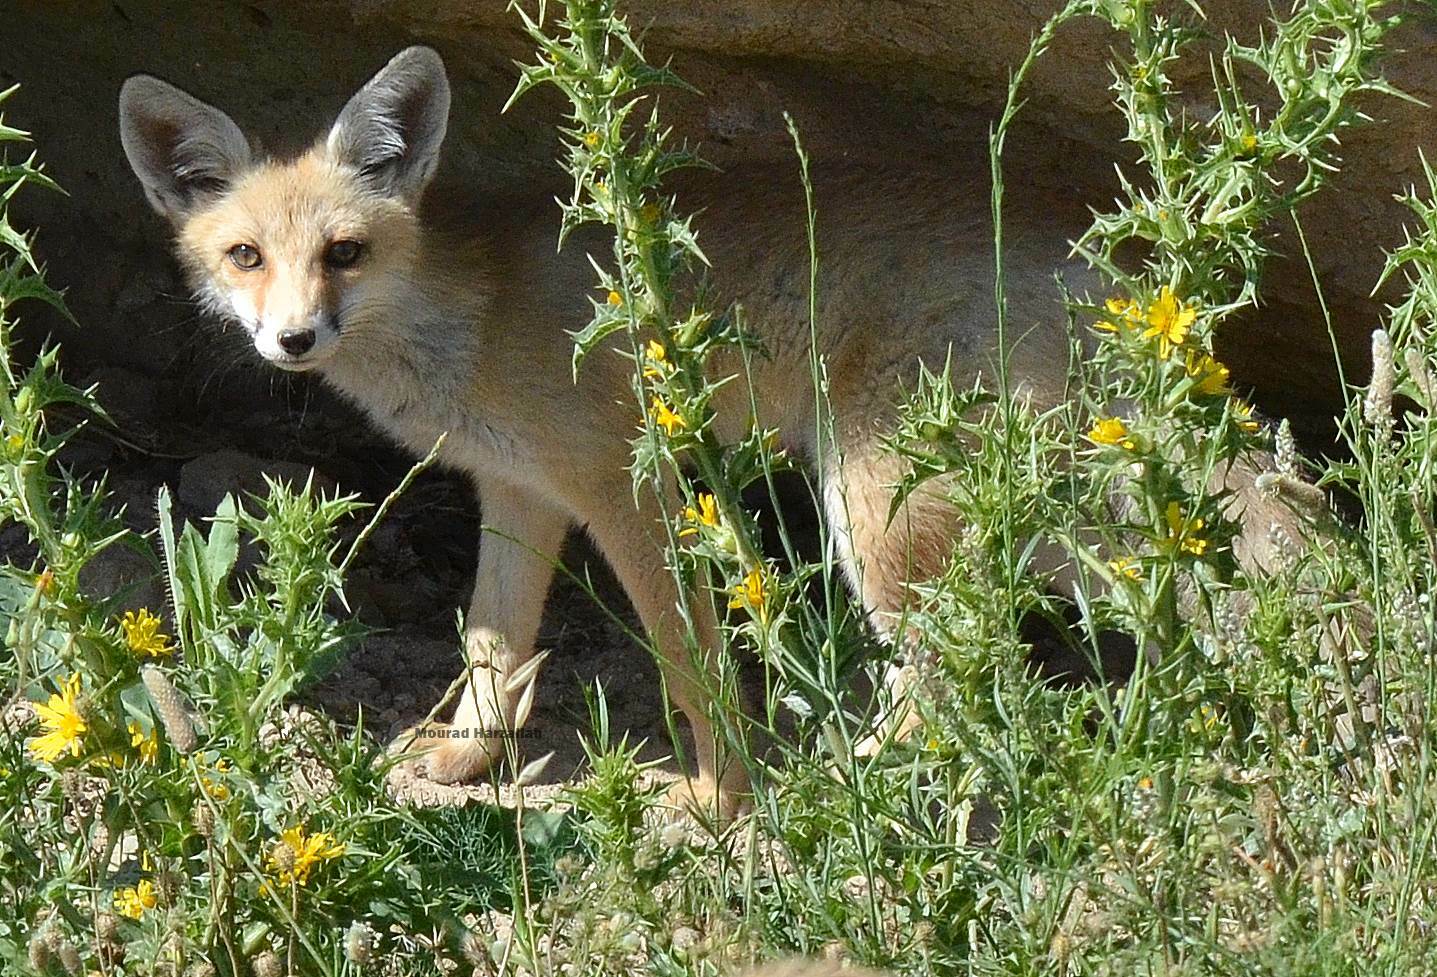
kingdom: Animalia
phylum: Chordata
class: Mammalia
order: Carnivora
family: Canidae
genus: Vulpes
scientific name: Vulpes vulpes
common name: Red fox
